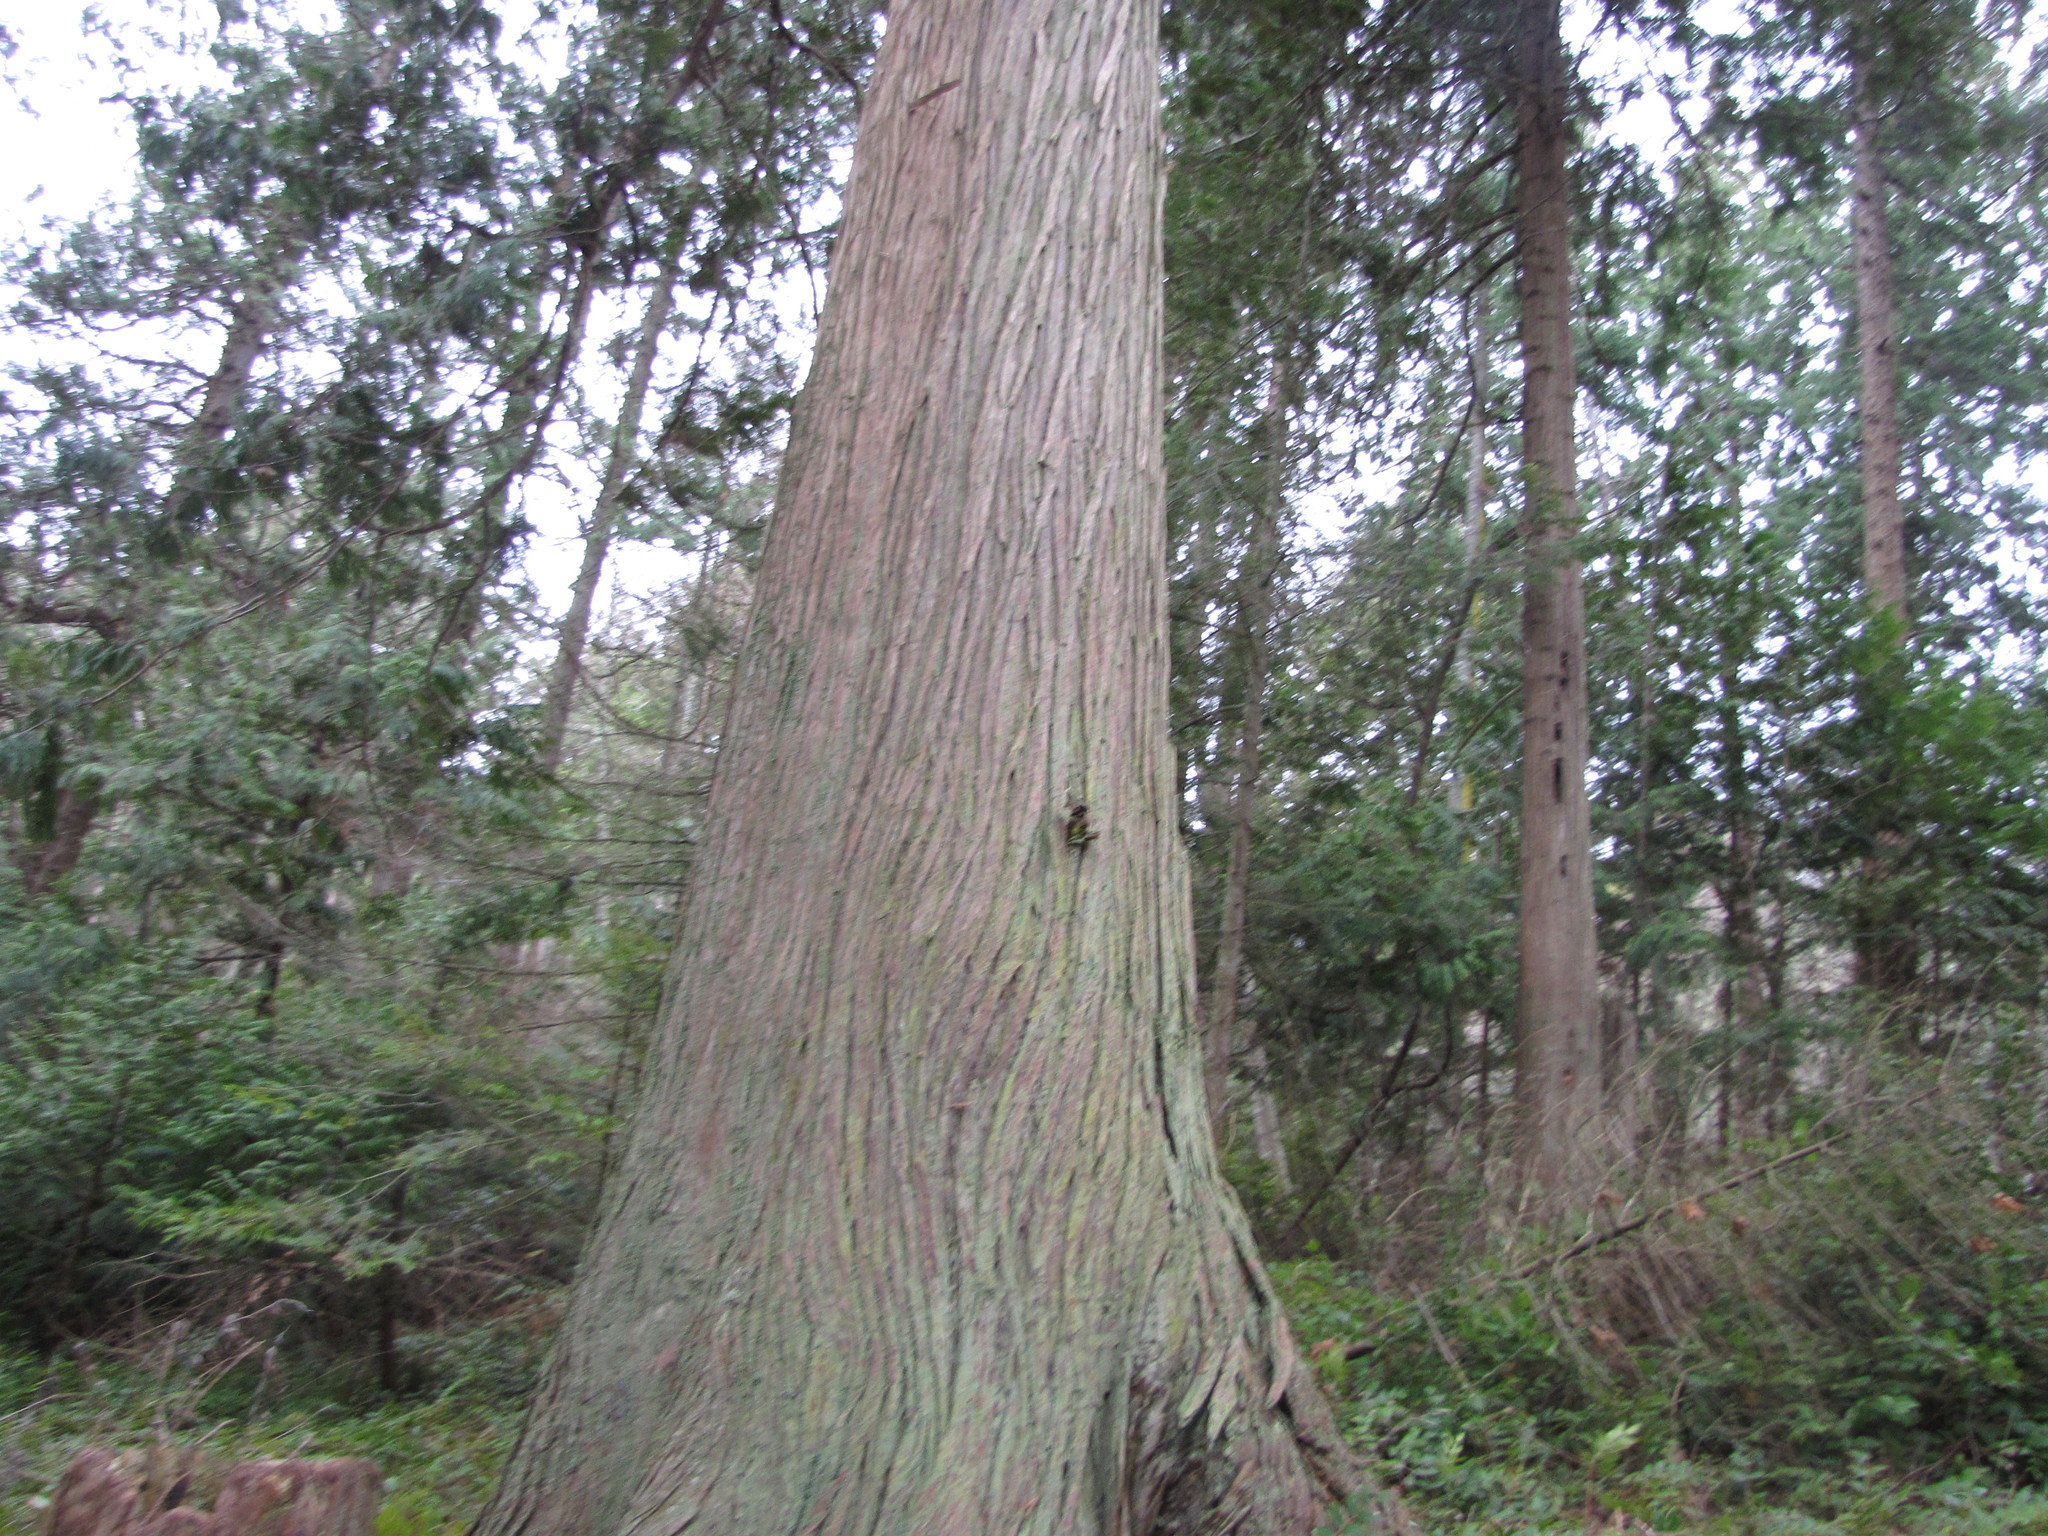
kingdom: Plantae
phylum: Tracheophyta
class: Pinopsida
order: Pinales
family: Cupressaceae
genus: Thuja
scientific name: Thuja plicata
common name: Western red-cedar
